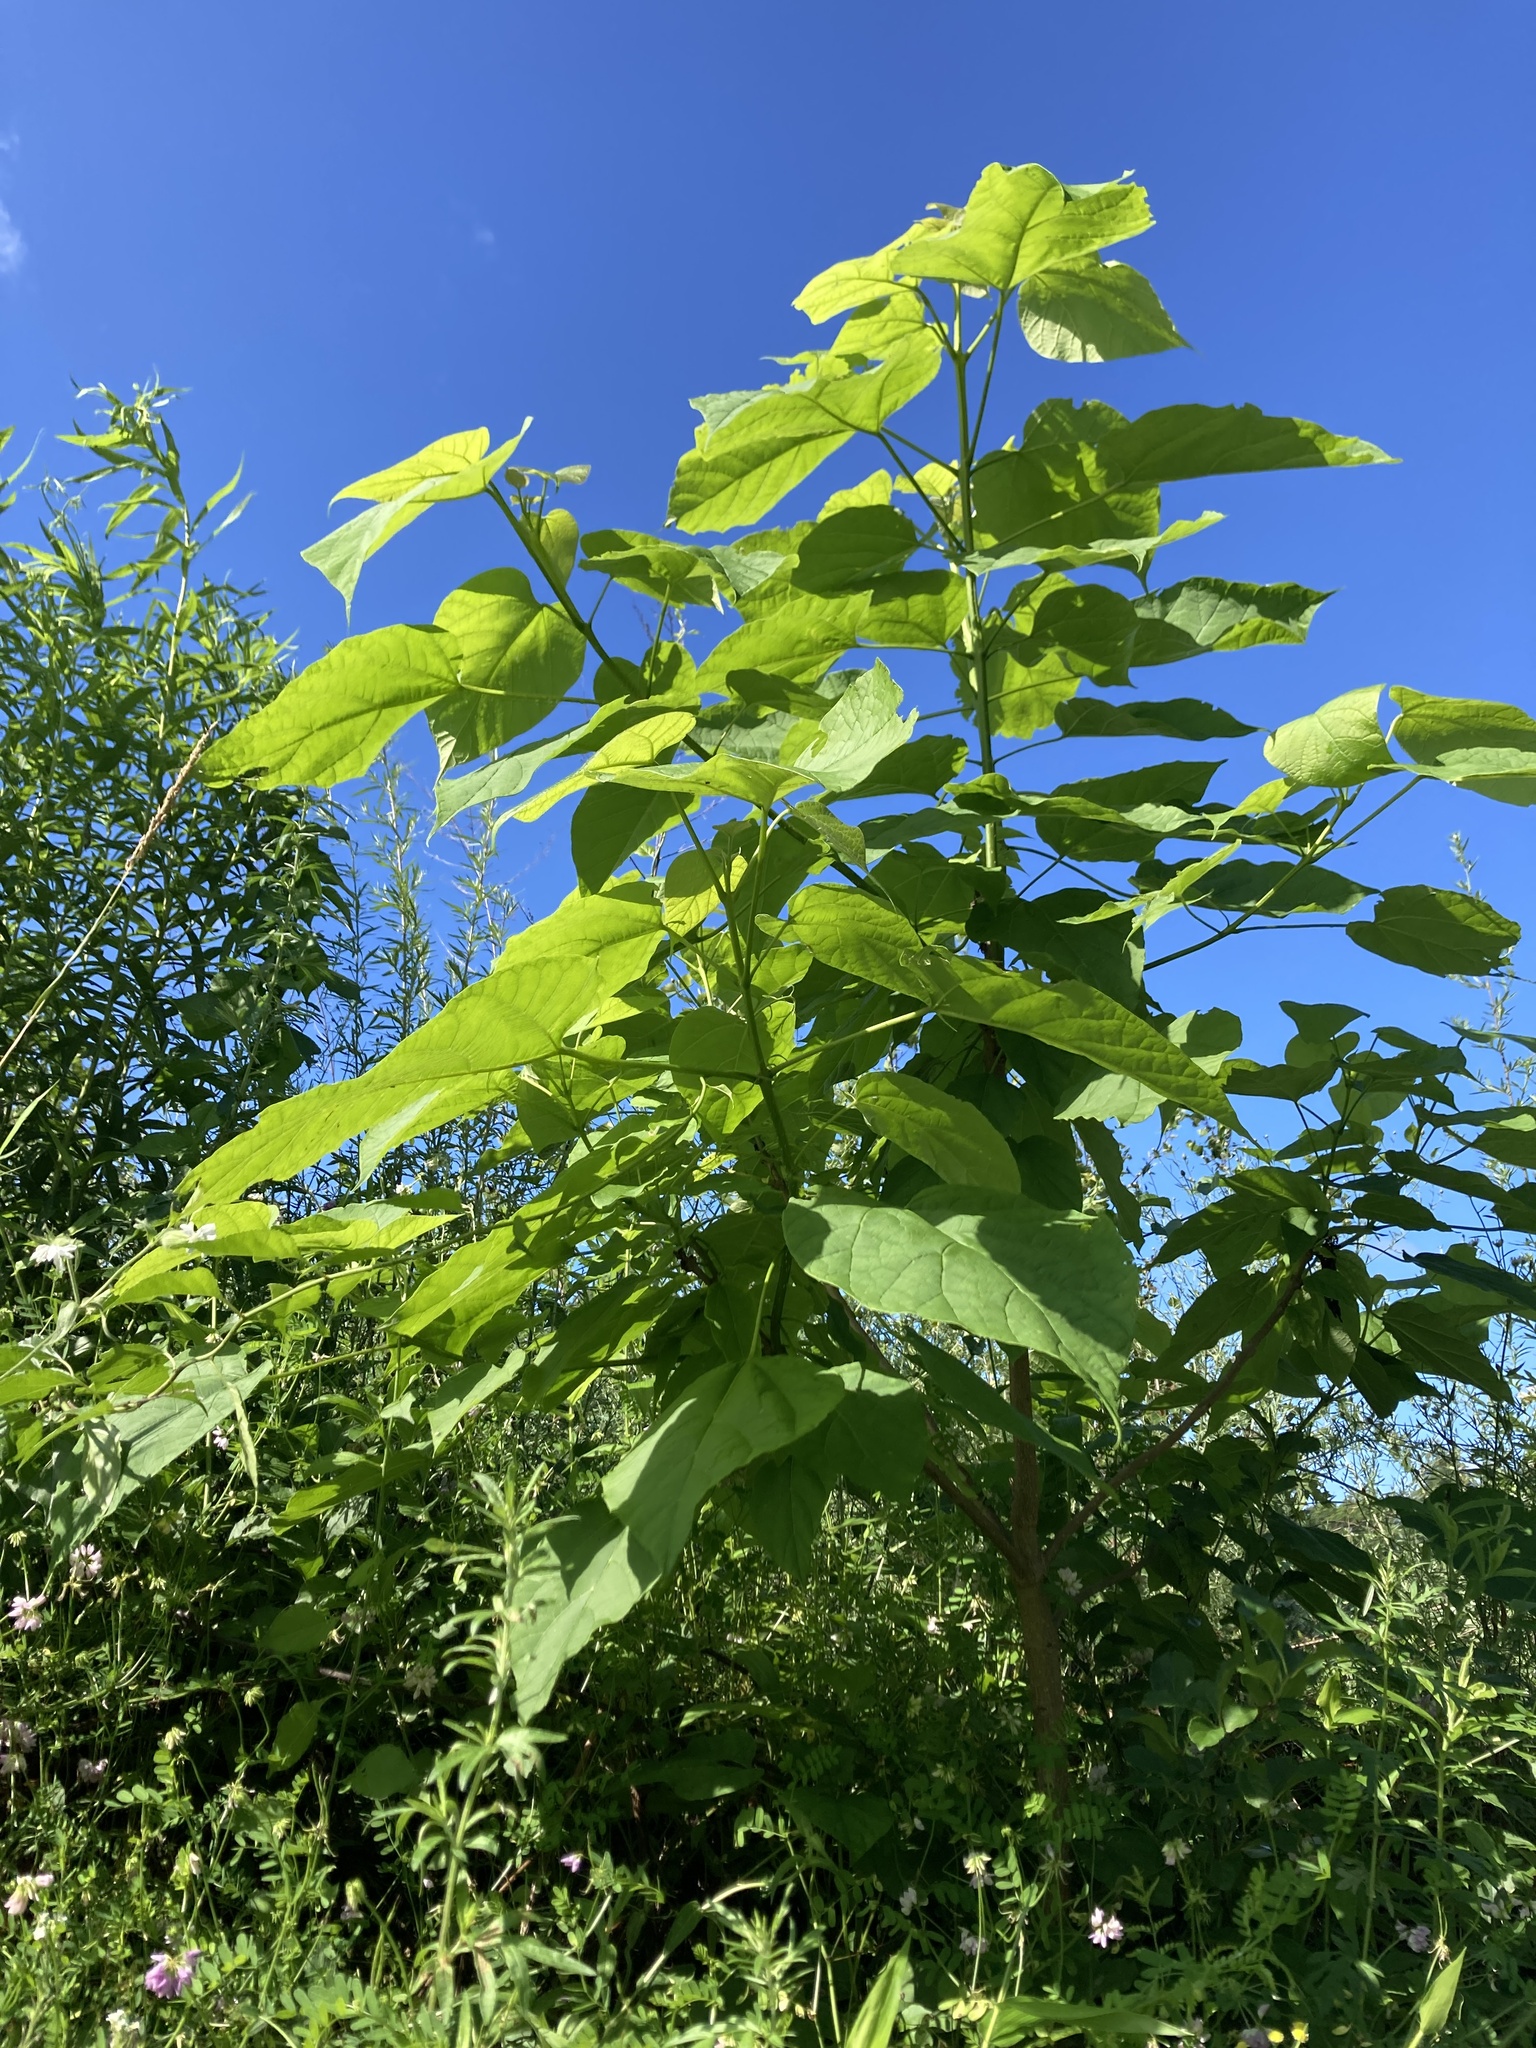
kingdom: Plantae
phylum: Tracheophyta
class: Magnoliopsida
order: Lamiales
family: Bignoniaceae
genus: Catalpa
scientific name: Catalpa speciosa
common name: Northern catalpa
